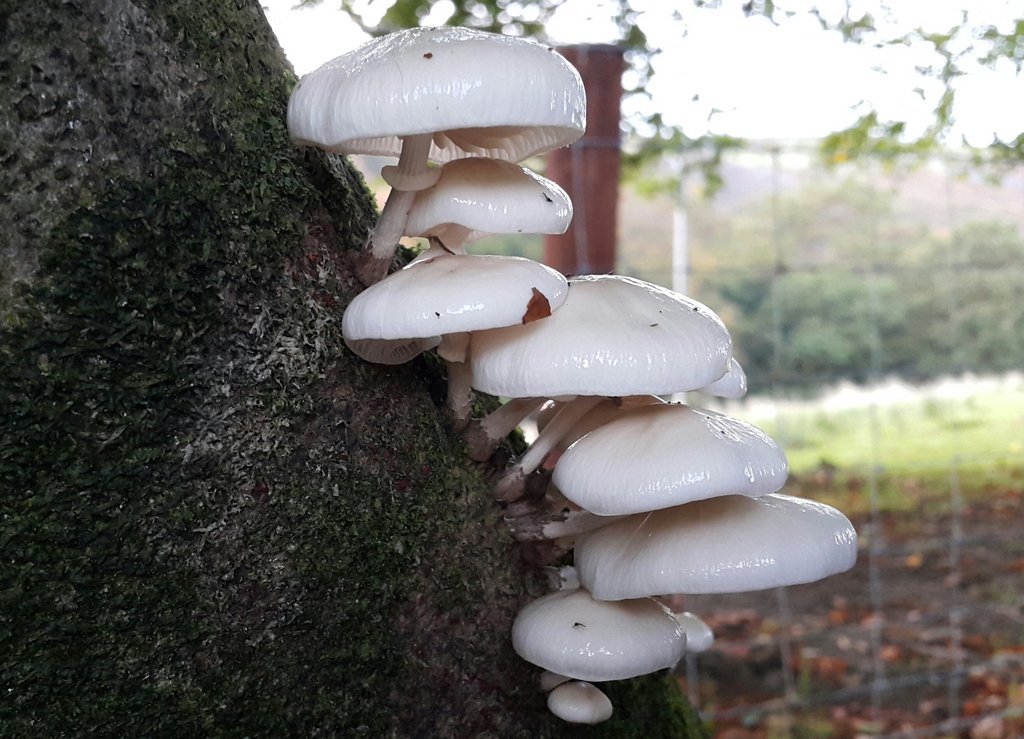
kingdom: Fungi
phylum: Basidiomycota
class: Agaricomycetes
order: Agaricales
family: Physalacriaceae
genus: Mucidula
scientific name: Mucidula mucida
